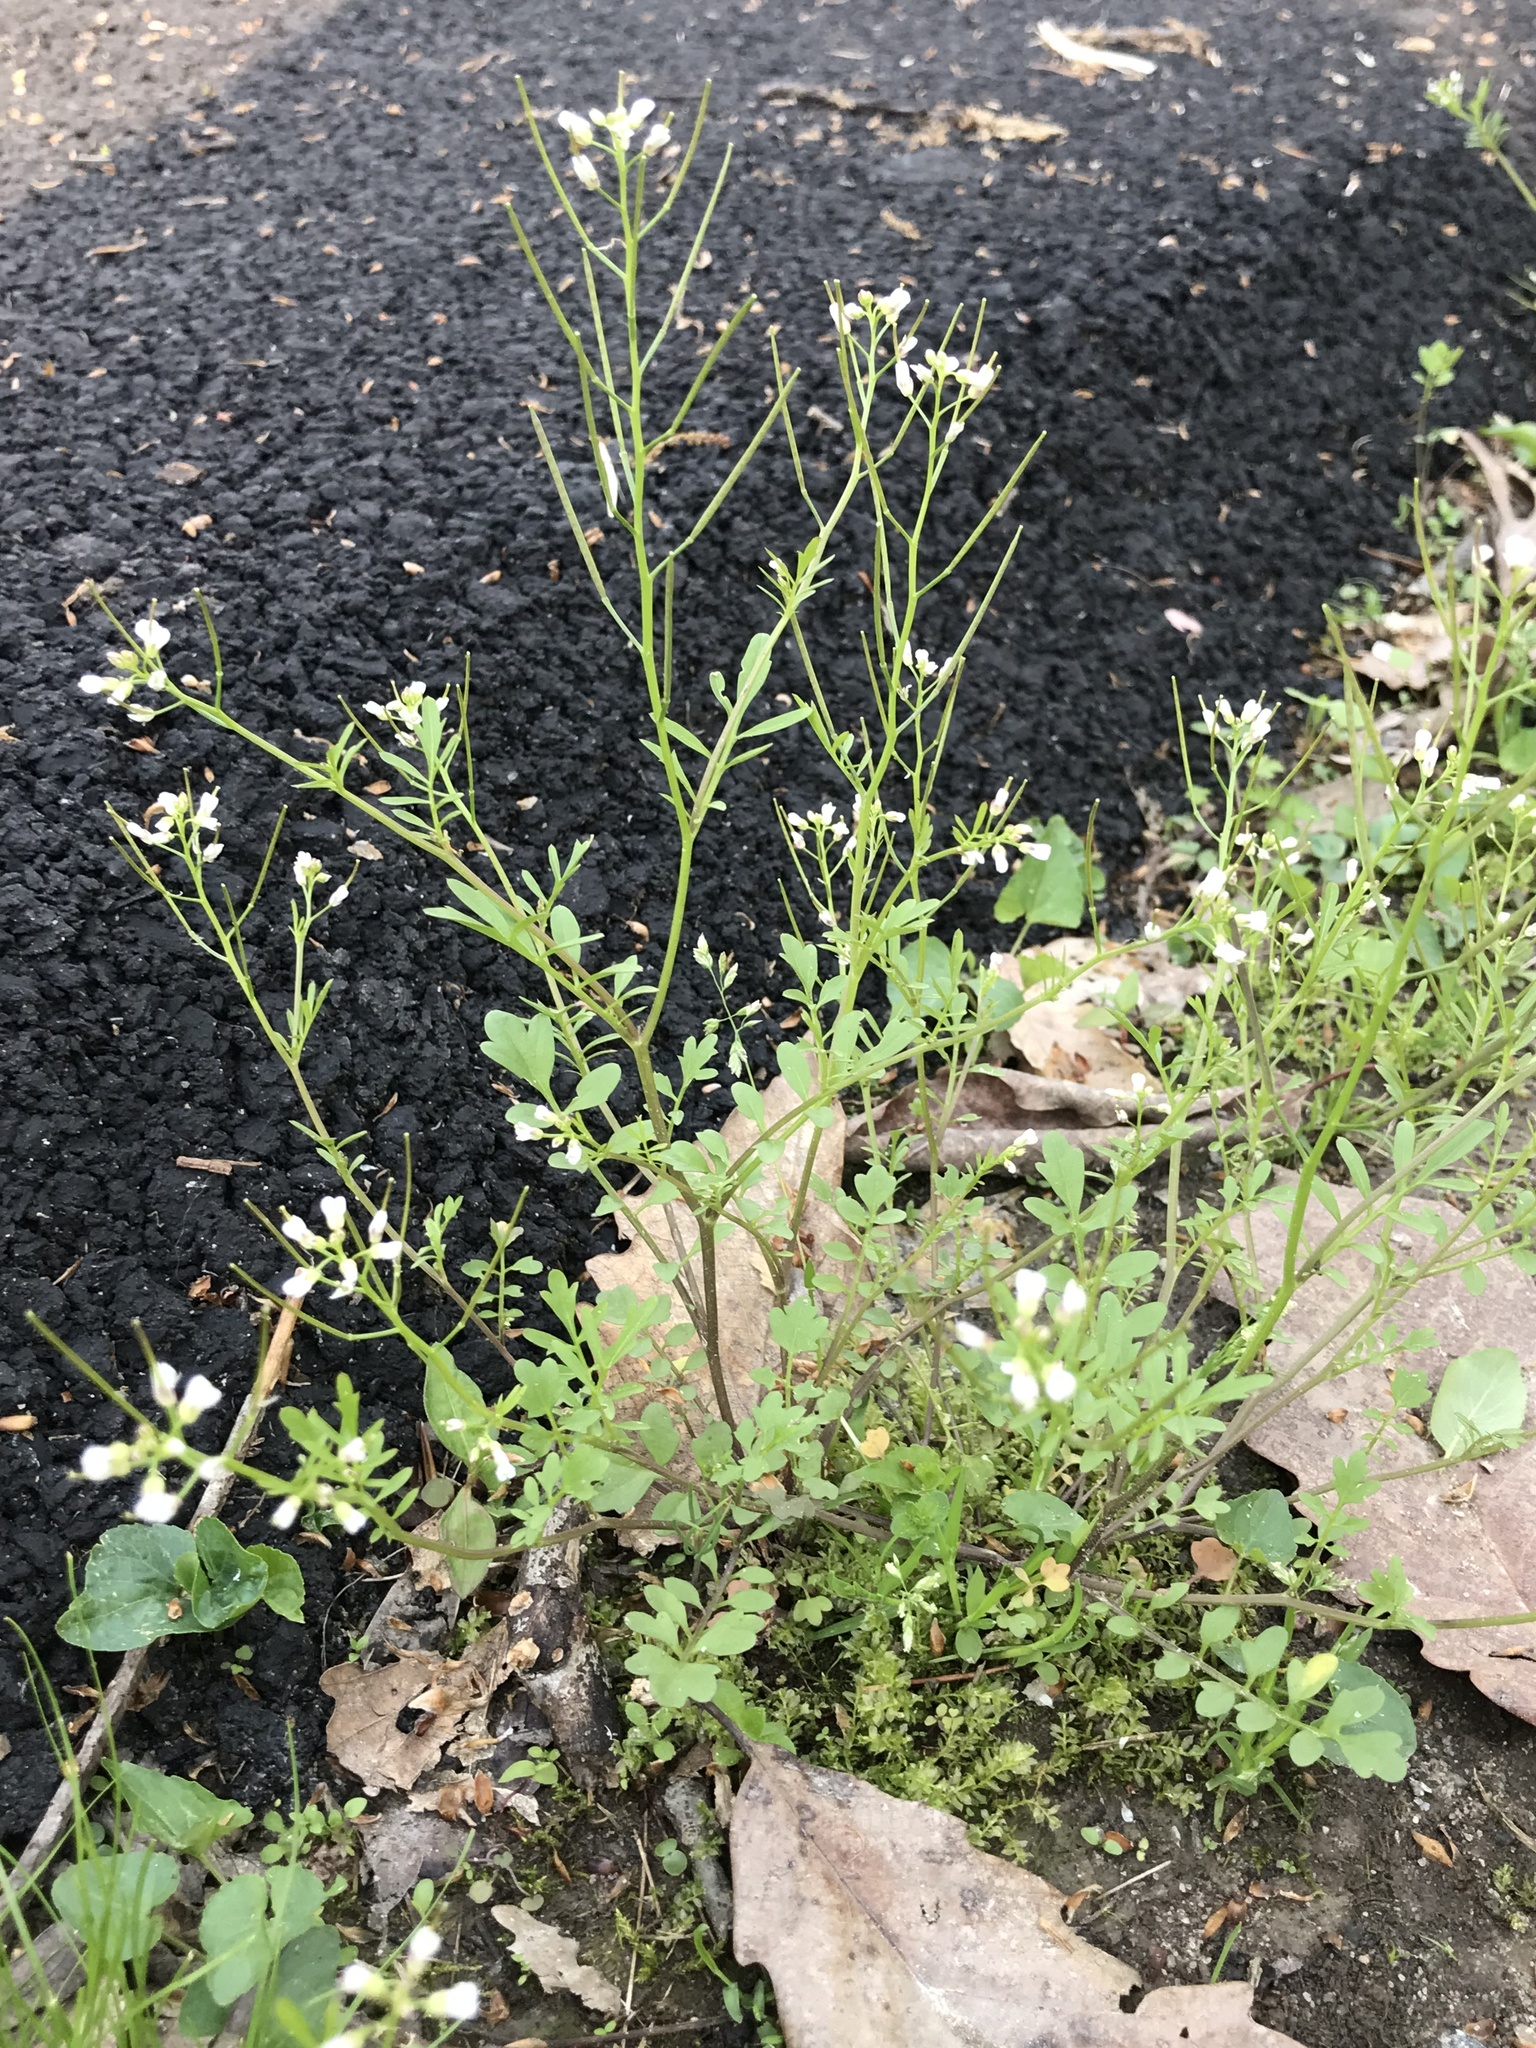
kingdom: Plantae
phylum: Tracheophyta
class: Magnoliopsida
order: Brassicales
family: Brassicaceae
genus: Cardamine
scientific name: Cardamine hirsuta
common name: Hairy bittercress
